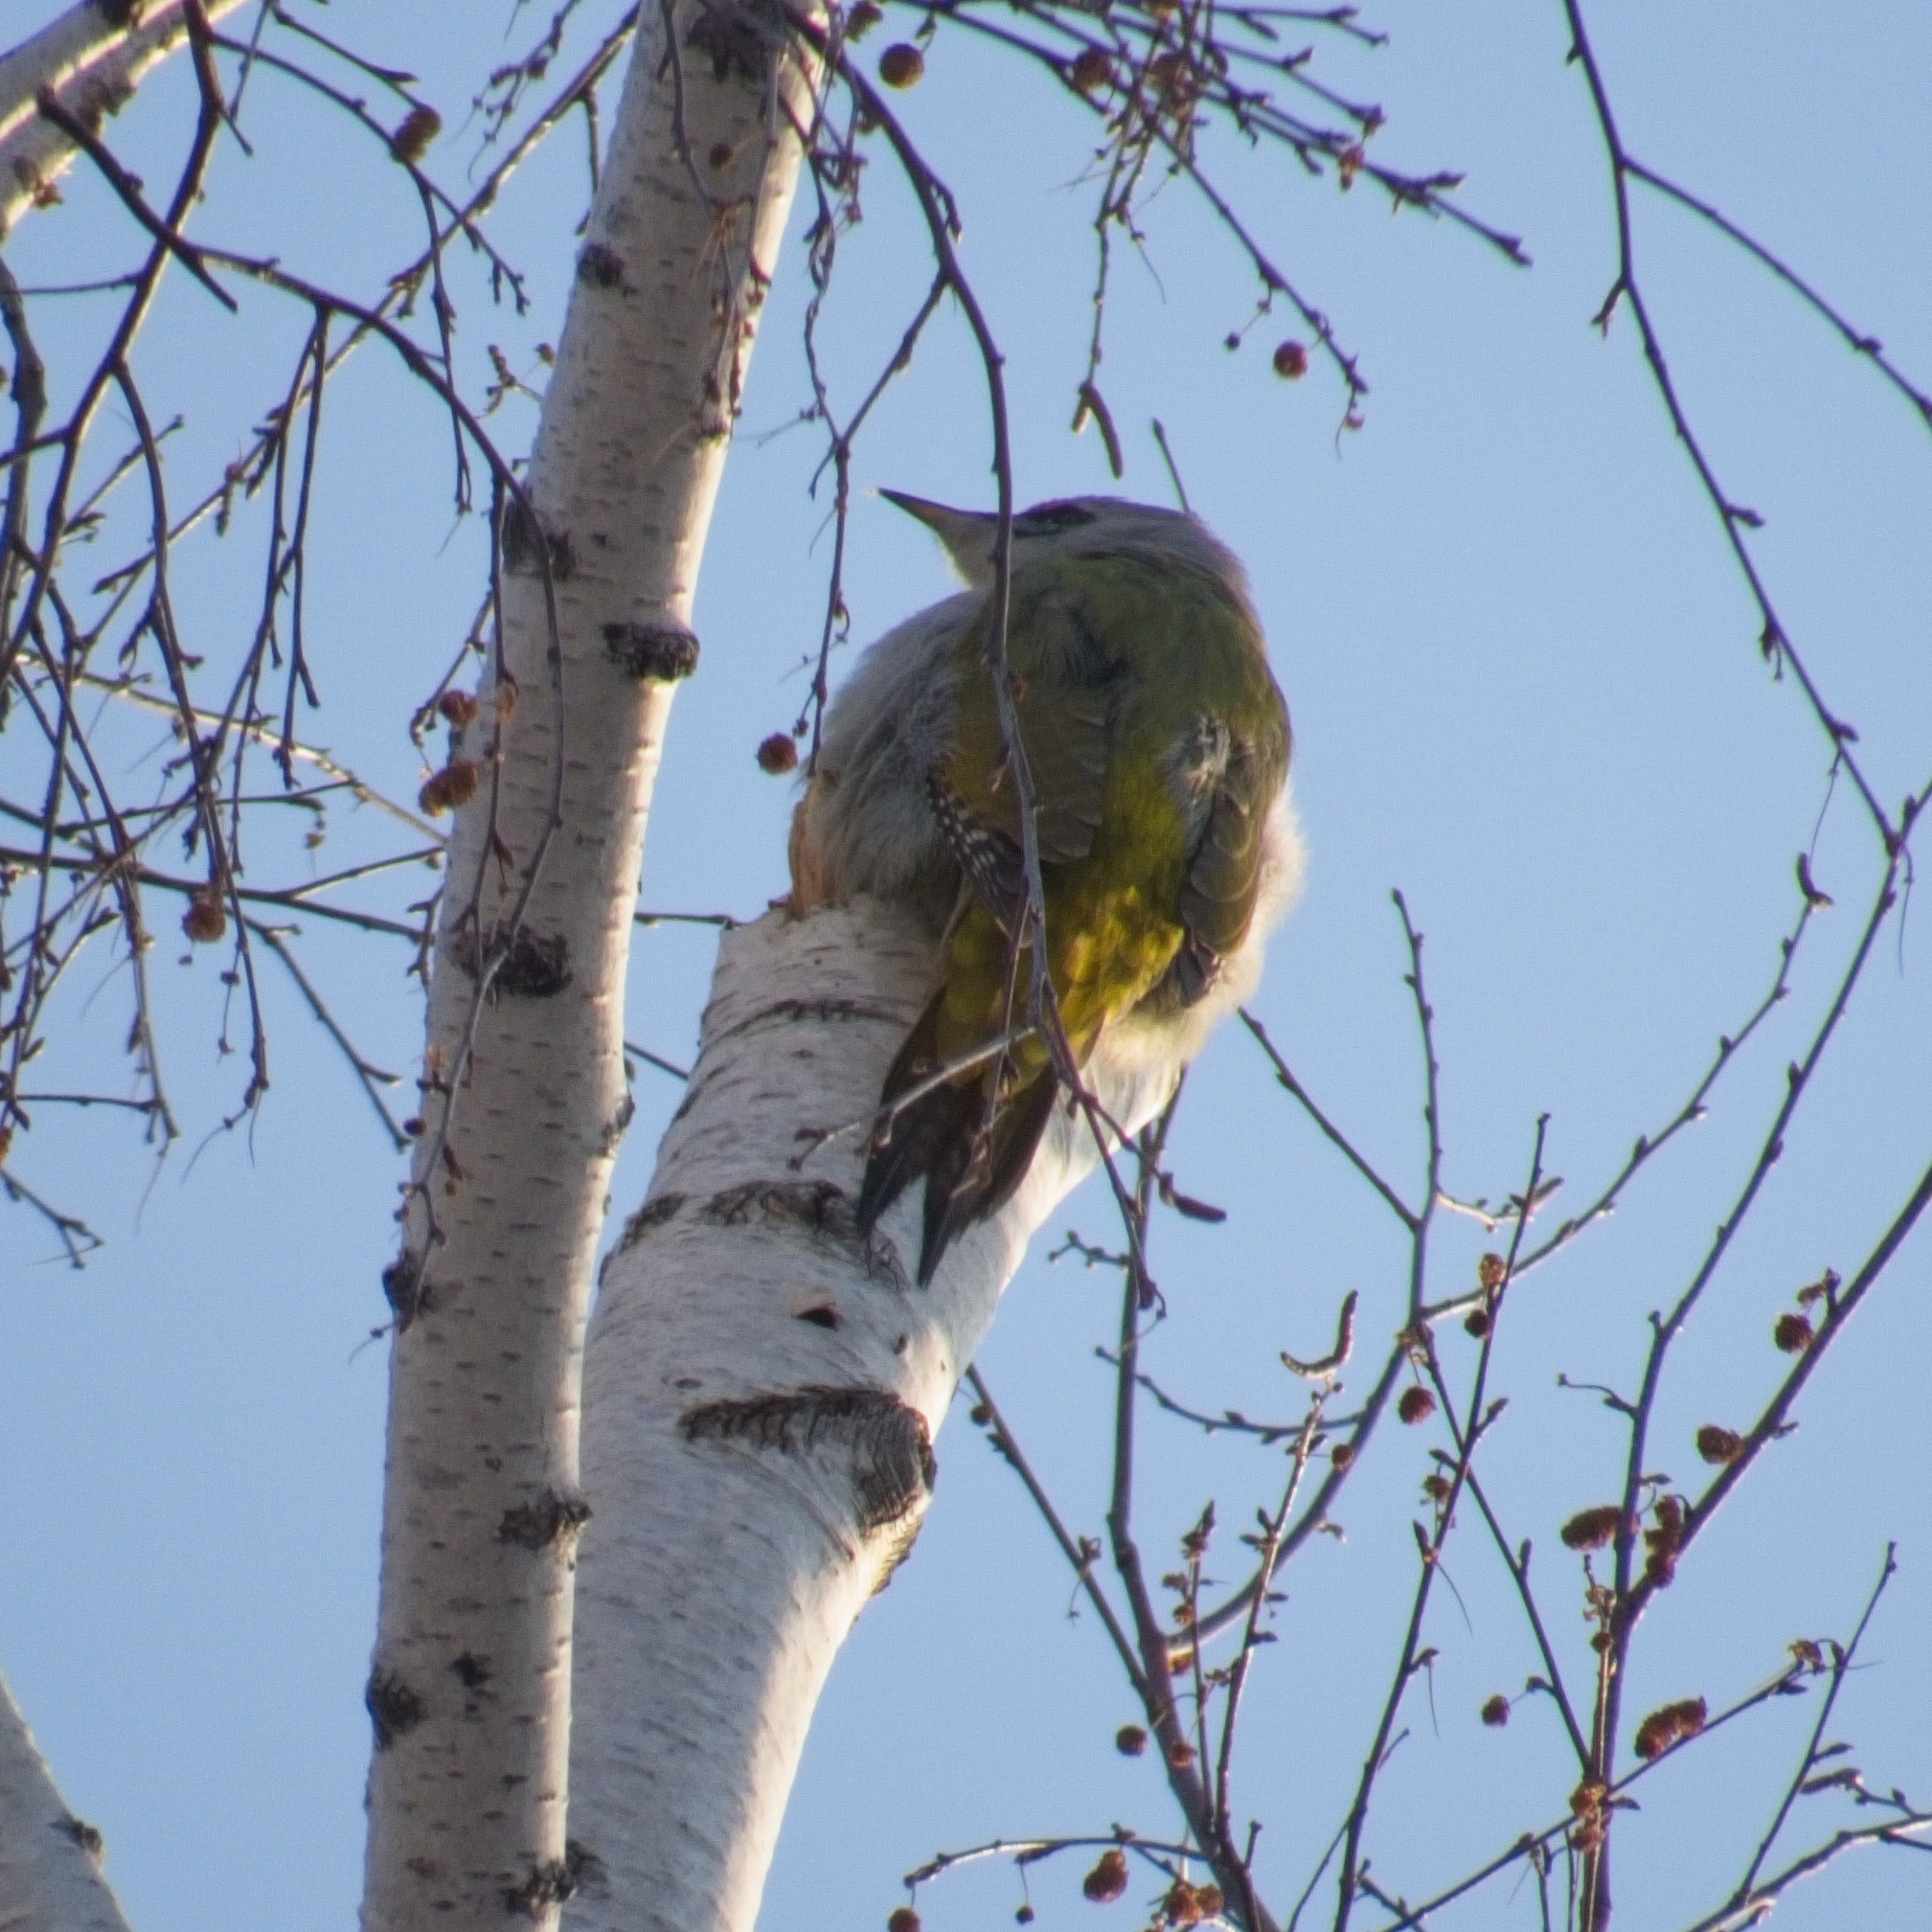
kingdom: Animalia
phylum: Chordata
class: Aves
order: Piciformes
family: Picidae
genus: Picus
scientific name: Picus canus
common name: Grey-headed woodpecker
